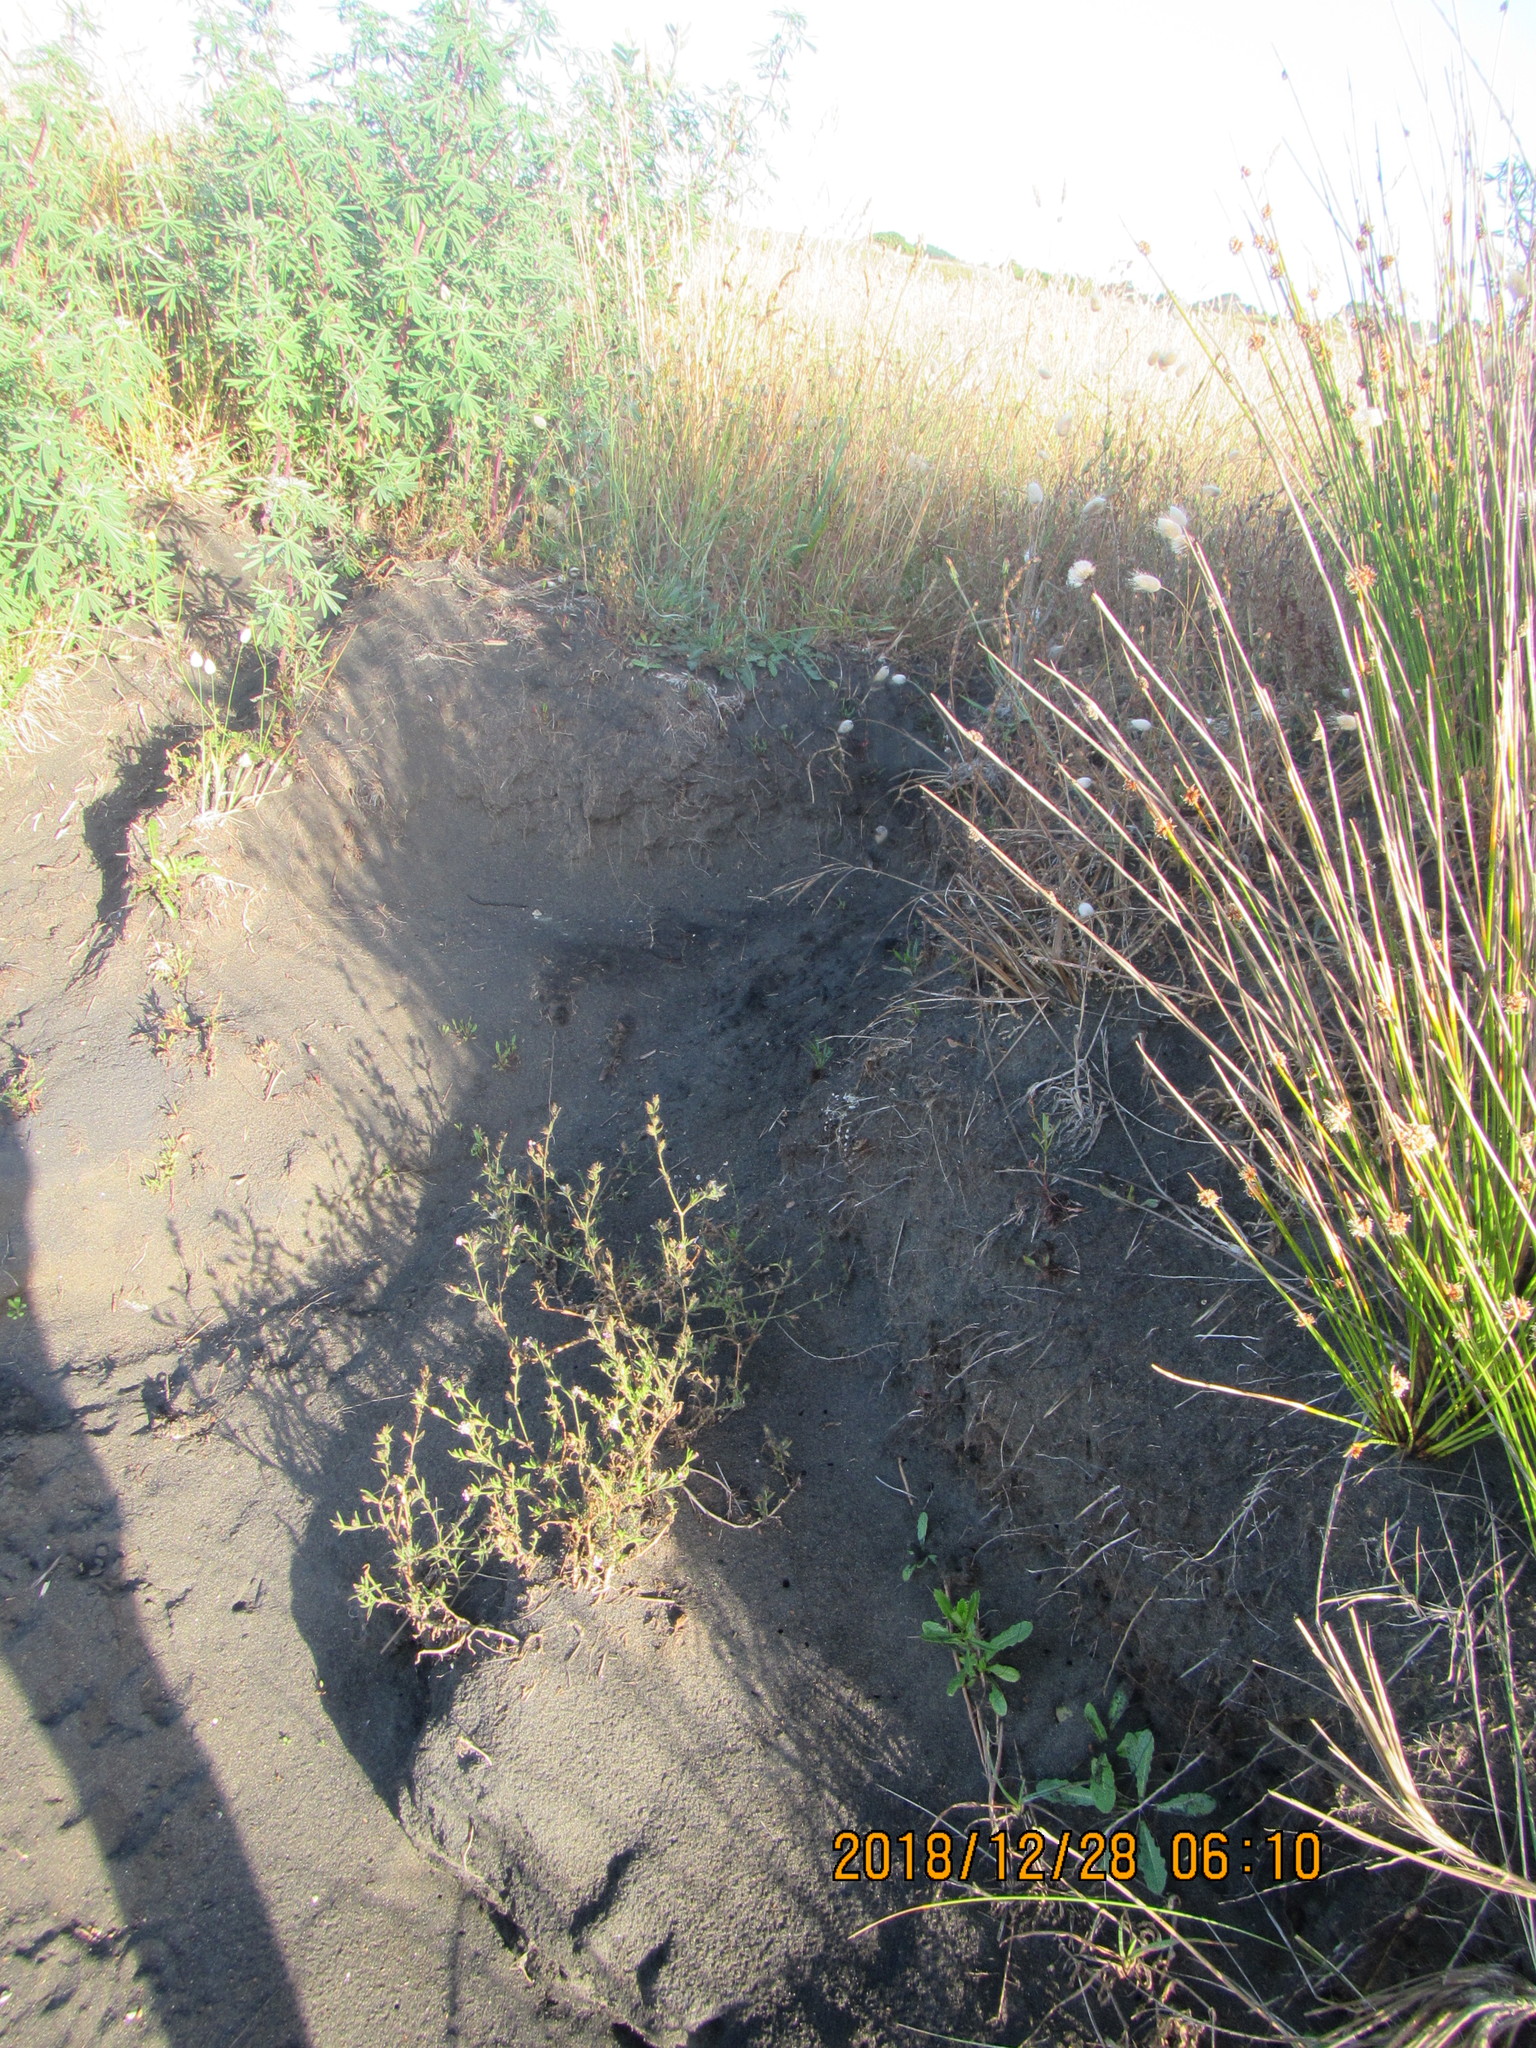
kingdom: Plantae
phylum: Tracheophyta
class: Magnoliopsida
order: Caryophyllales
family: Caryophyllaceae
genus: Silene
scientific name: Silene gallica
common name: Small-flowered catchfly
